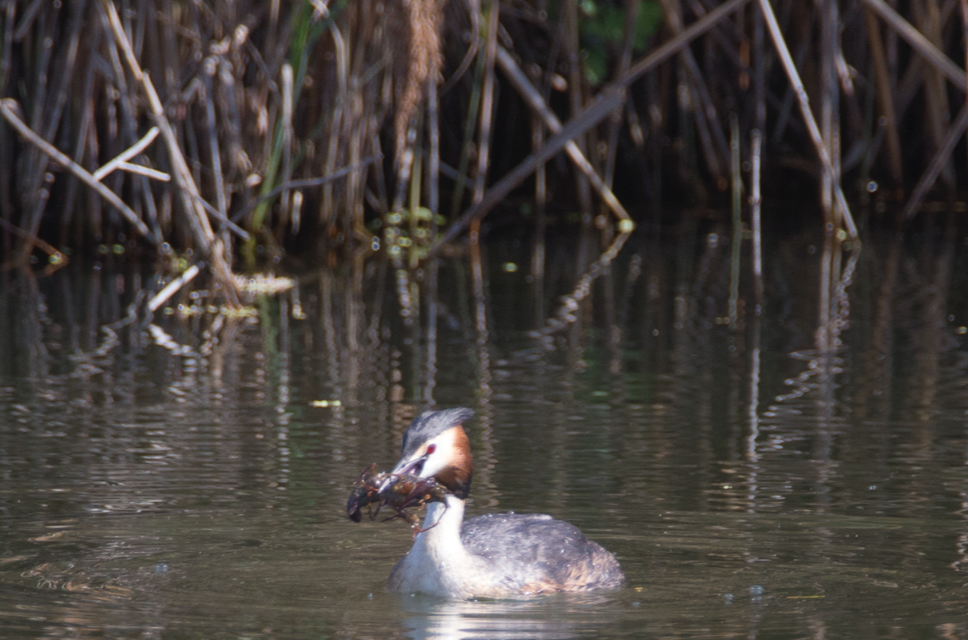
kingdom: Animalia
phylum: Chordata
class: Aves
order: Podicipediformes
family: Podicipedidae
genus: Podiceps
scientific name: Podiceps cristatus
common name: Great crested grebe
